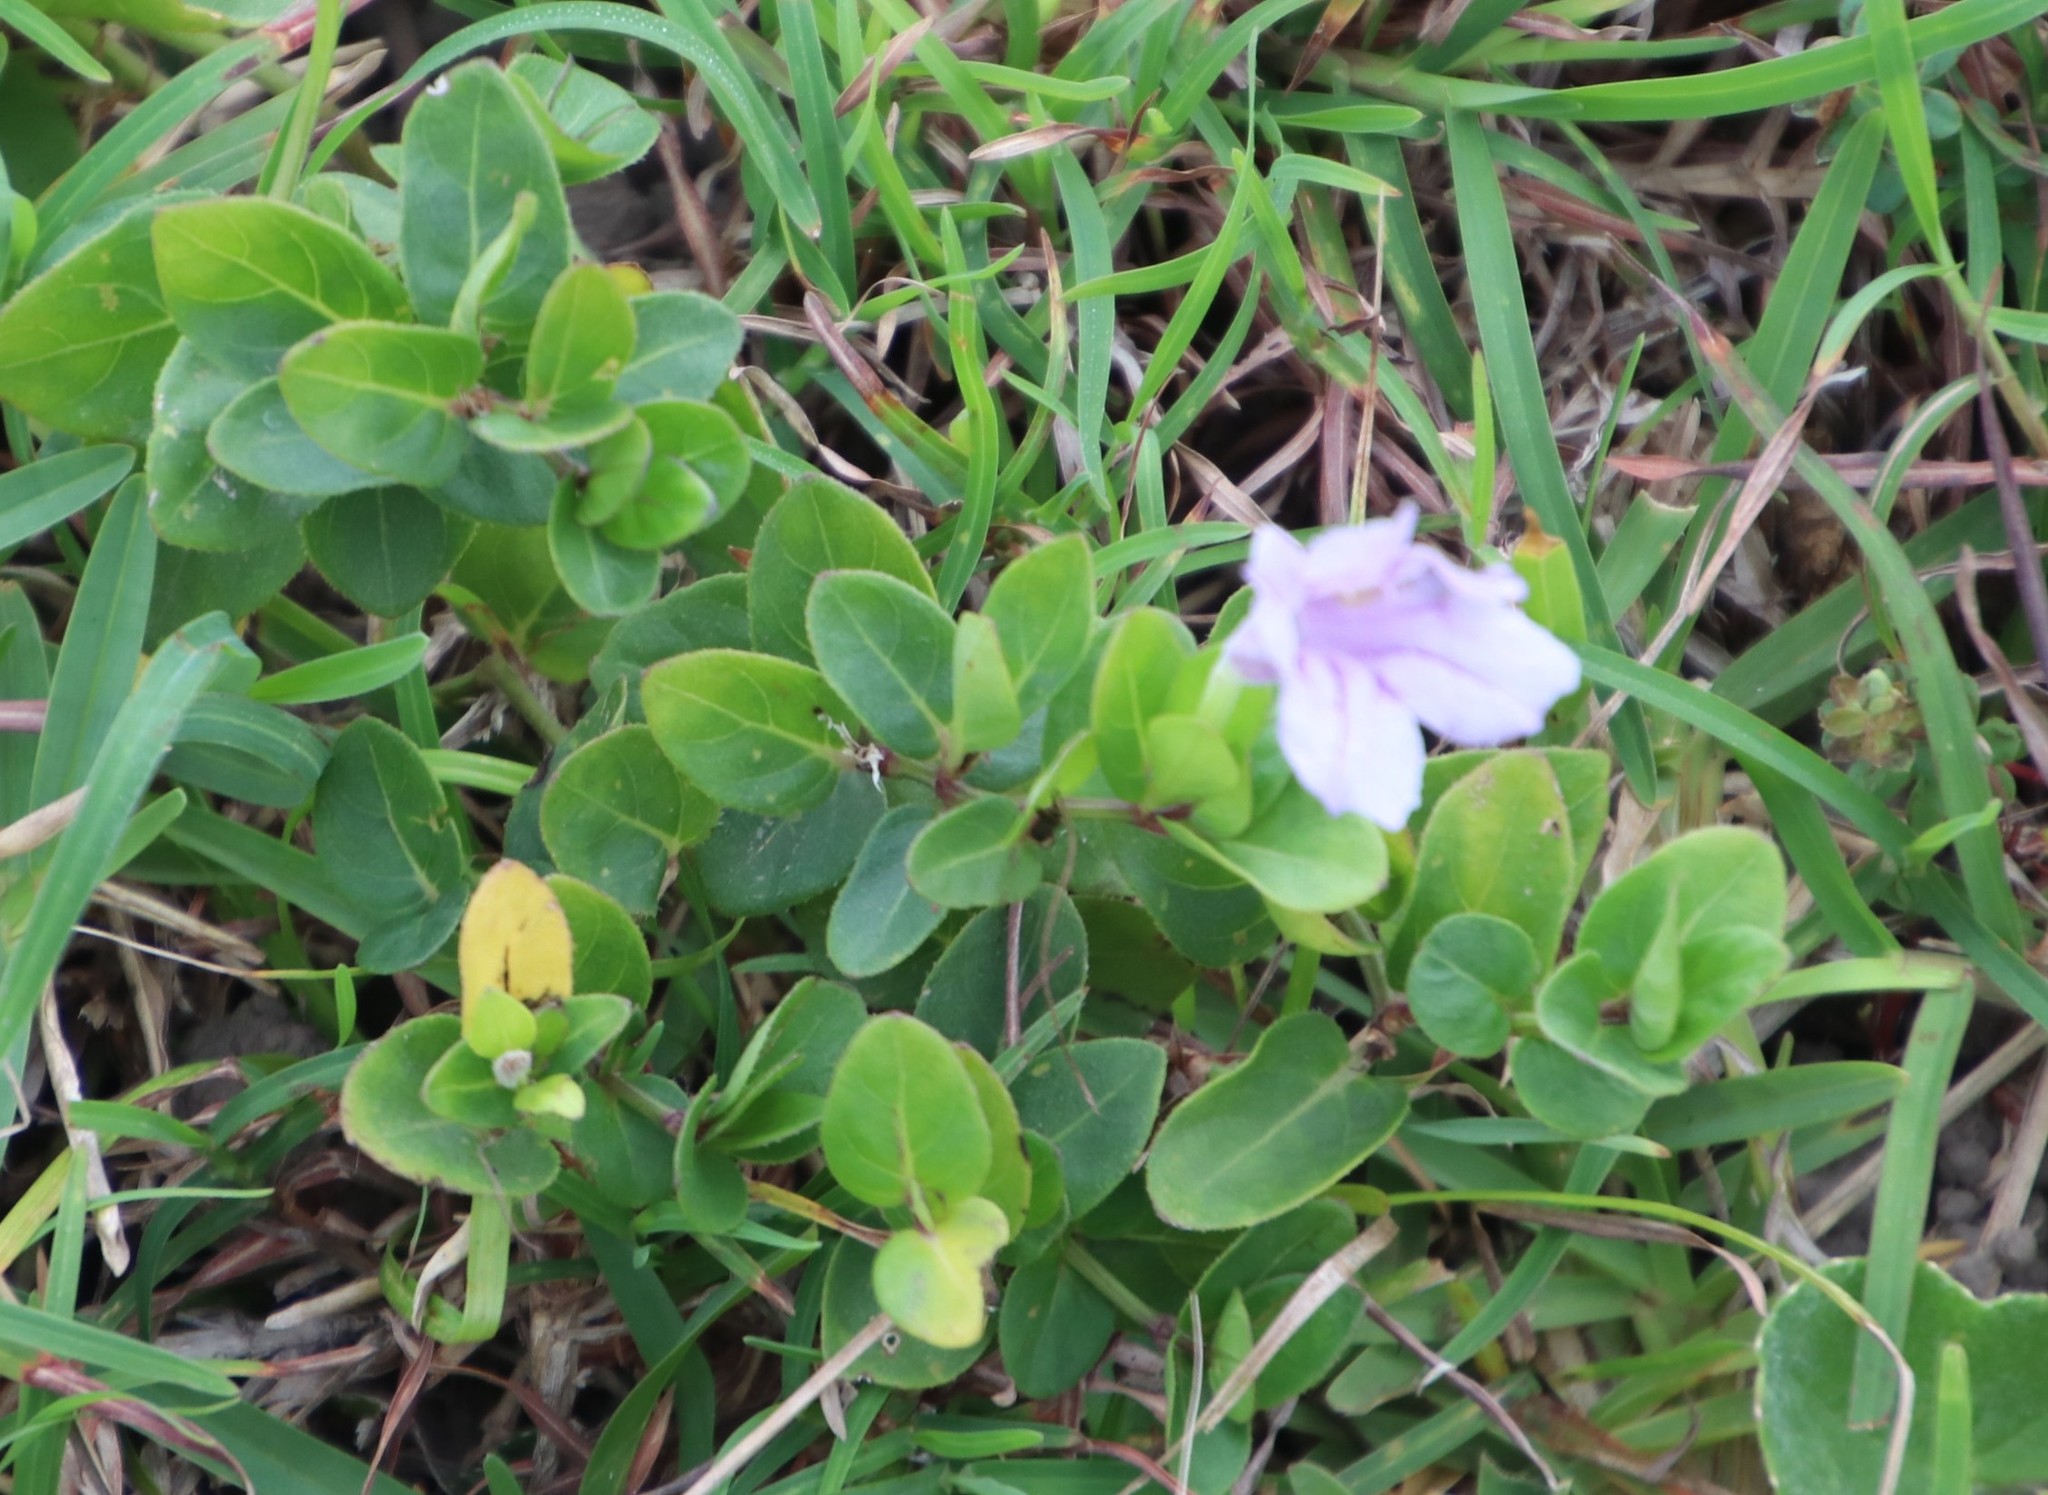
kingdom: Plantae
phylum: Tracheophyta
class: Magnoliopsida
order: Lamiales
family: Acanthaceae
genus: Ruellia
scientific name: Ruellia cordata
